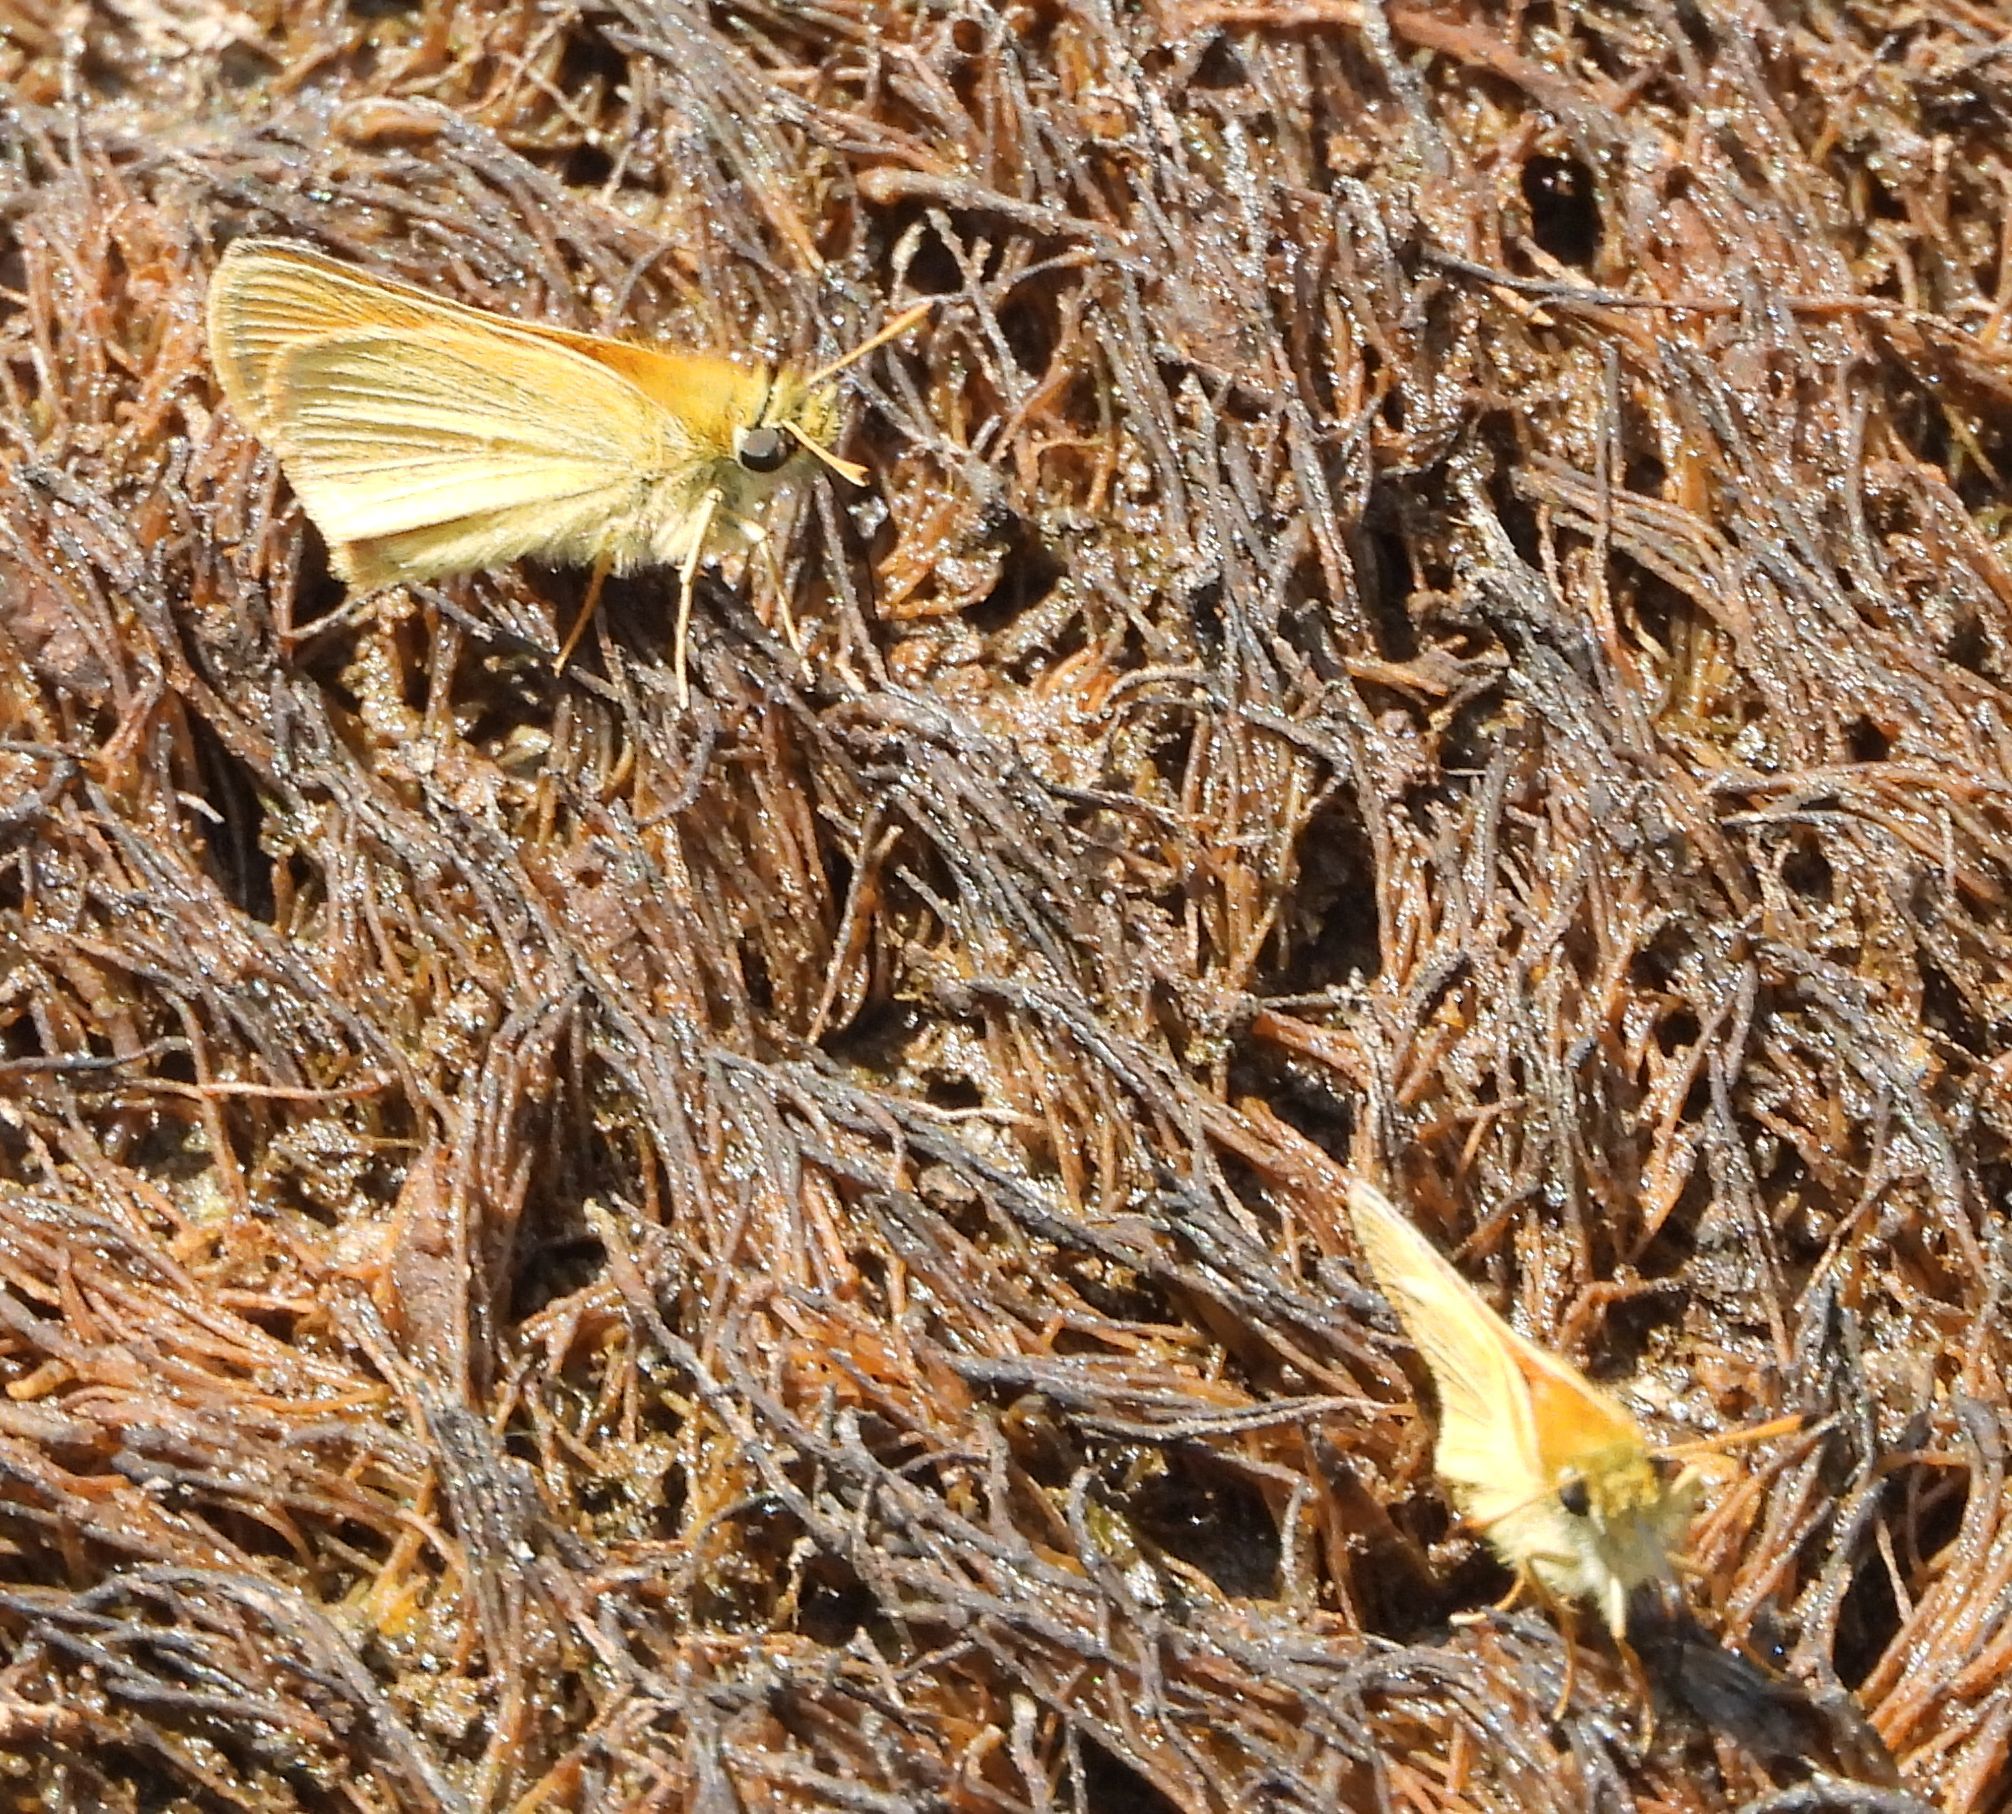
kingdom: Animalia
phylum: Arthropoda
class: Insecta
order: Lepidoptera
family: Hesperiidae
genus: Thymelicus
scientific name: Thymelicus lineola
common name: Essex skipper
